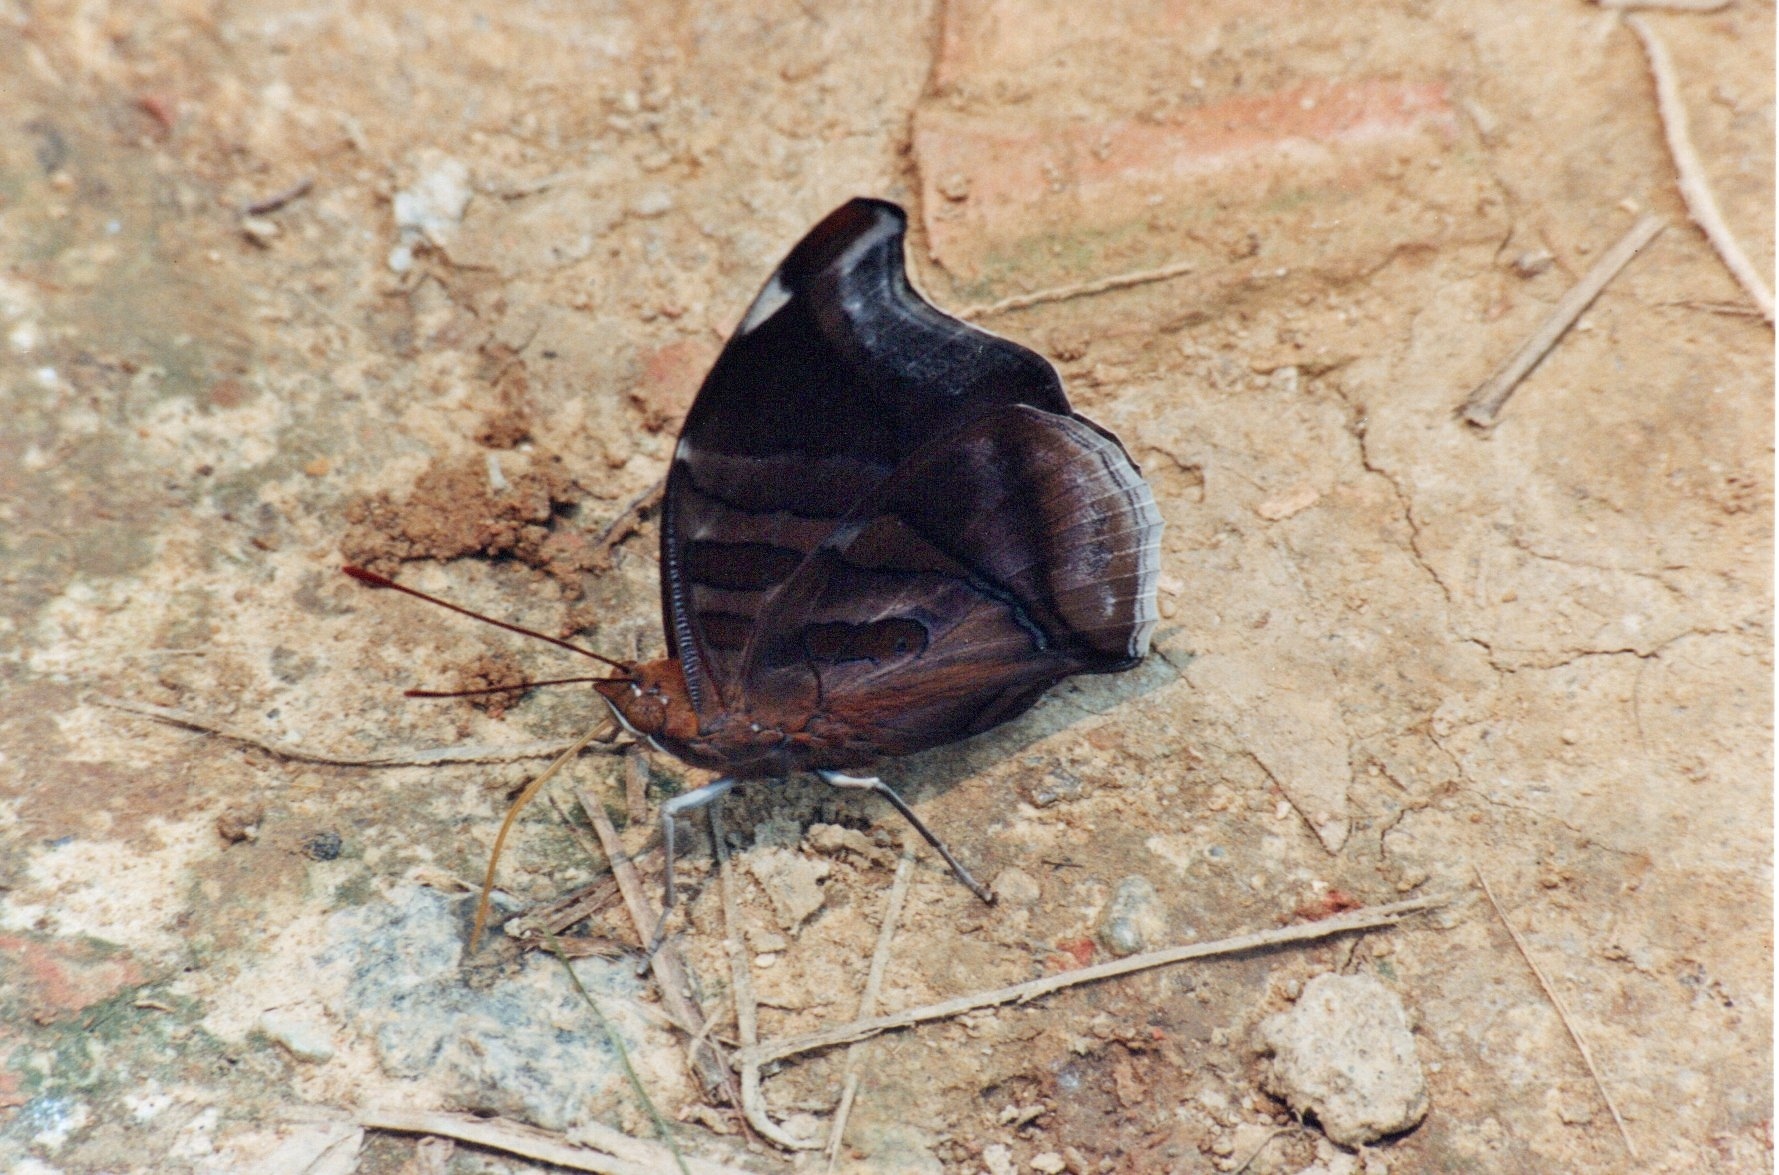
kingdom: Animalia
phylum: Arthropoda
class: Insecta
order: Lepidoptera
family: Nymphalidae
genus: Historis
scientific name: Historis odius
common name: Orion cecropian
